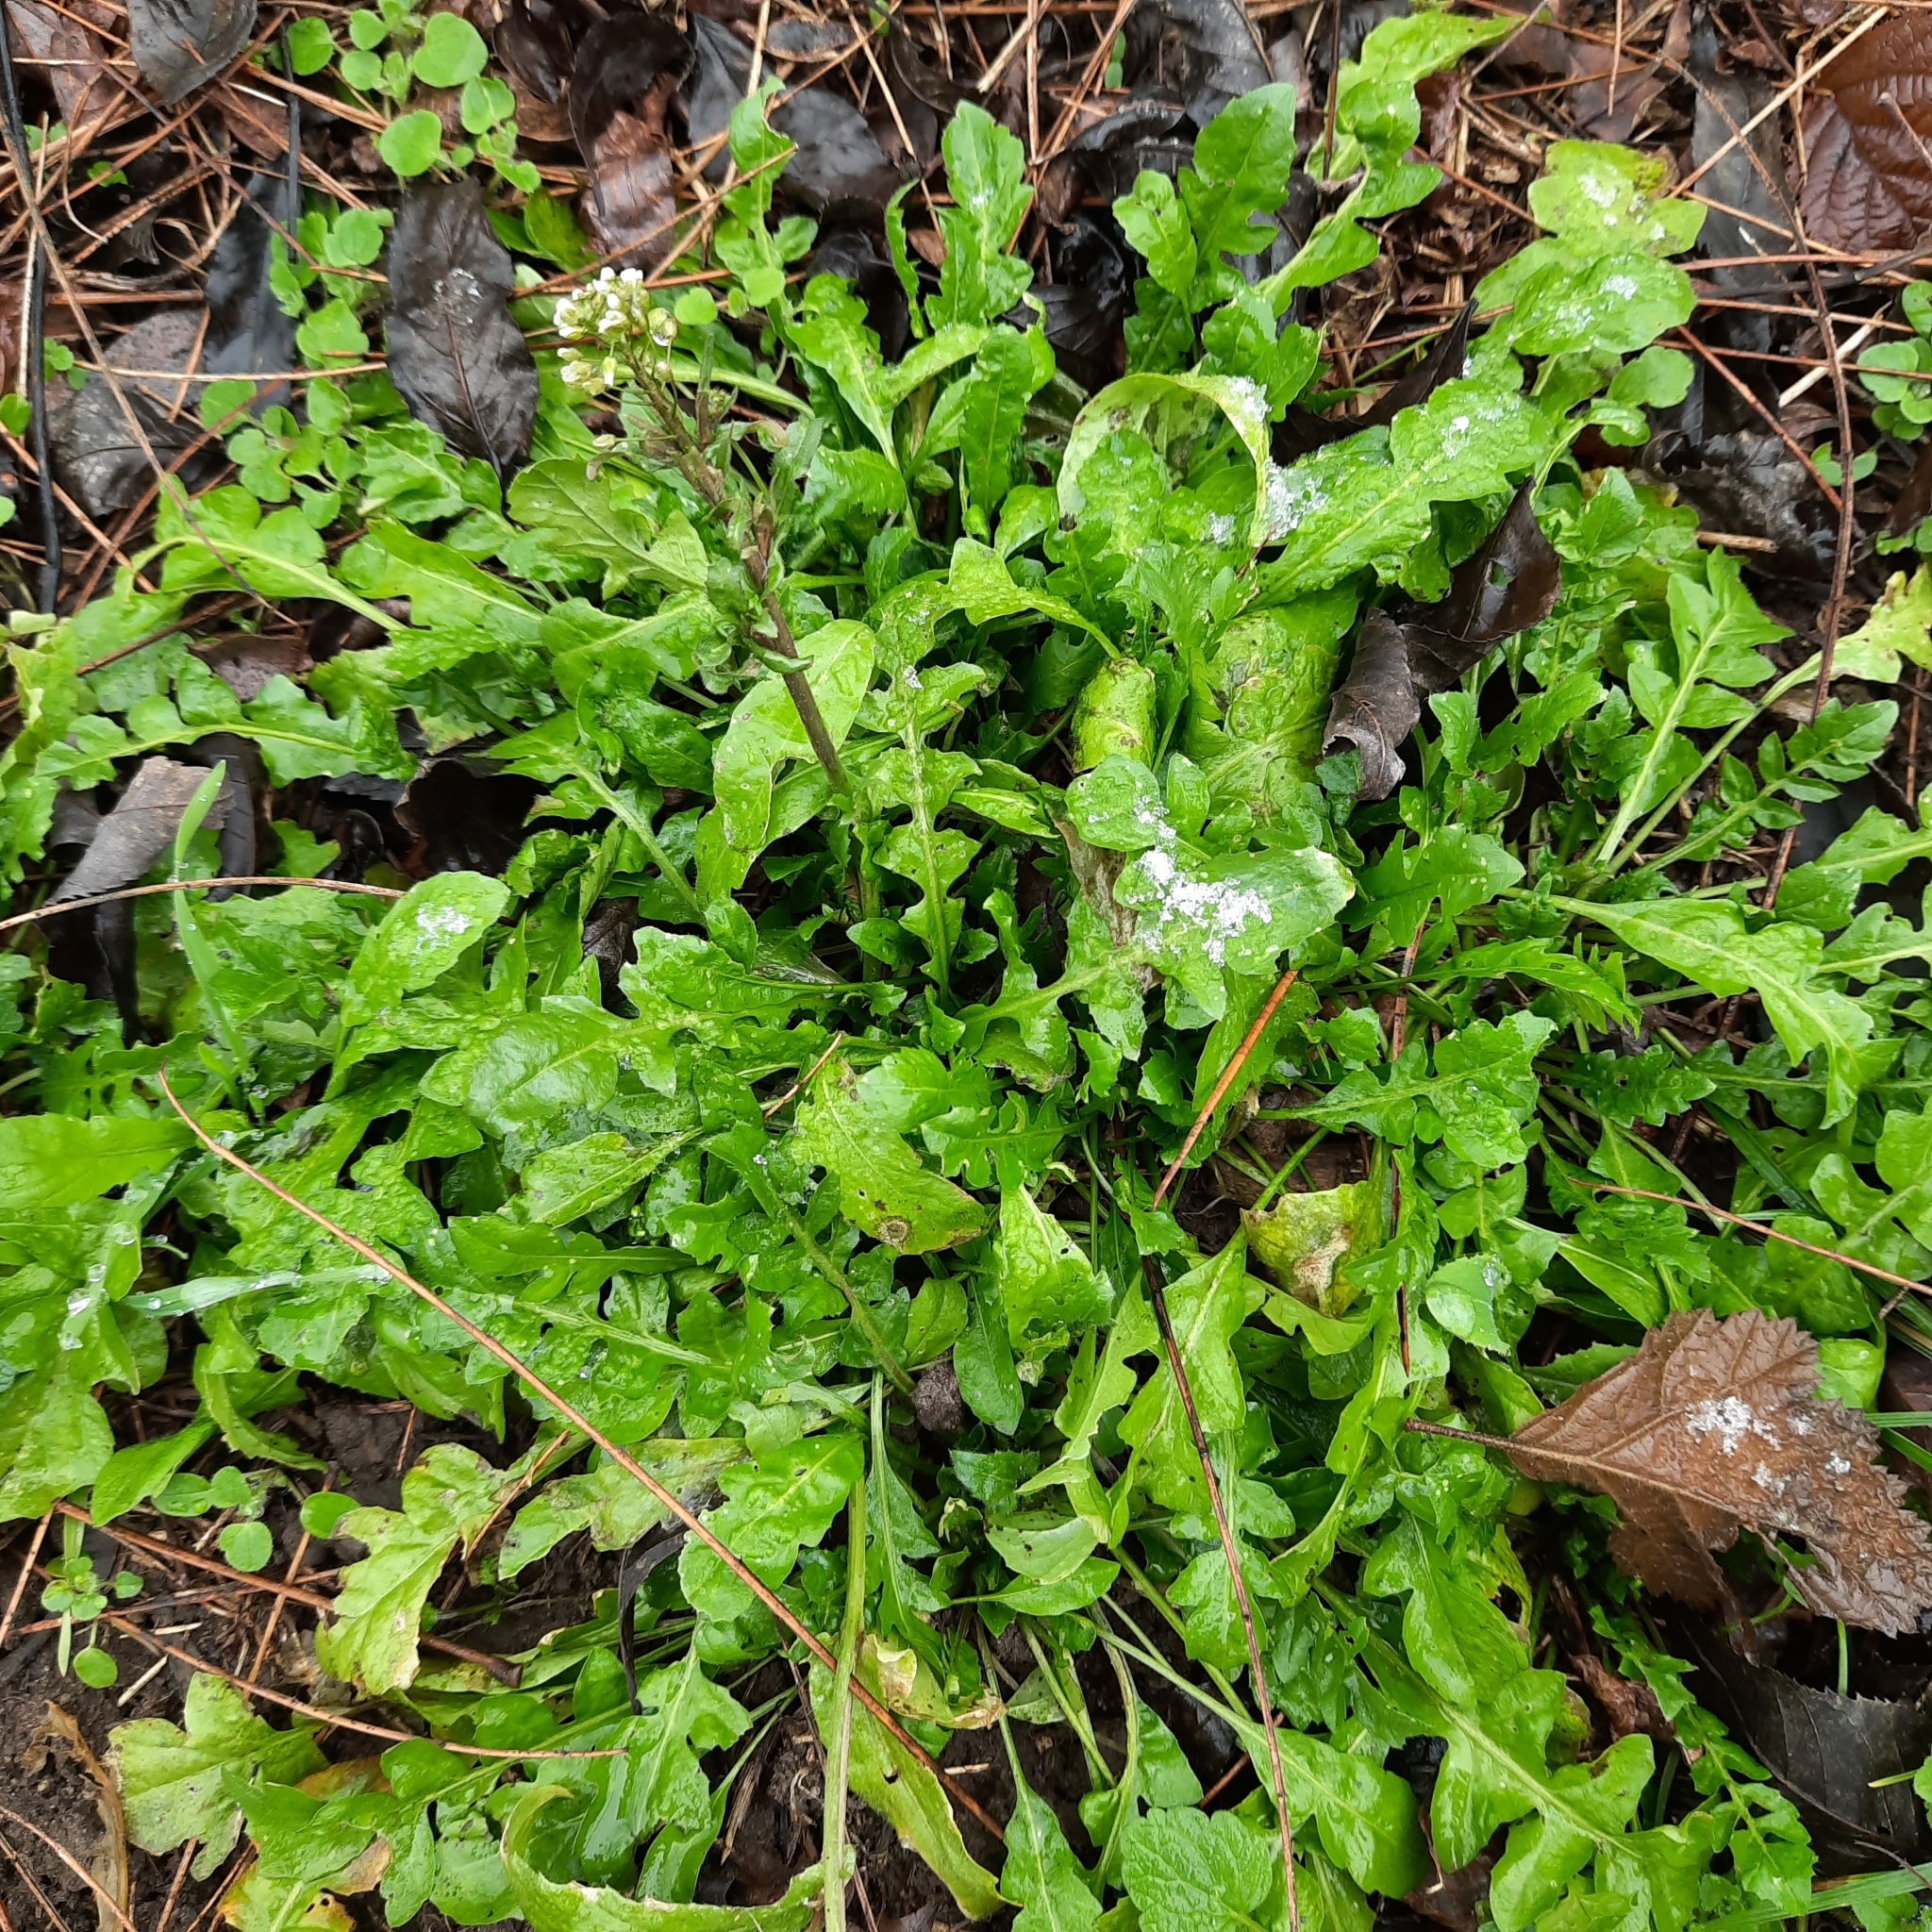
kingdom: Plantae
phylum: Tracheophyta
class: Magnoliopsida
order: Brassicales
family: Brassicaceae
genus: Capsella
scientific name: Capsella bursa-pastoris
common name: Shepherd's purse
